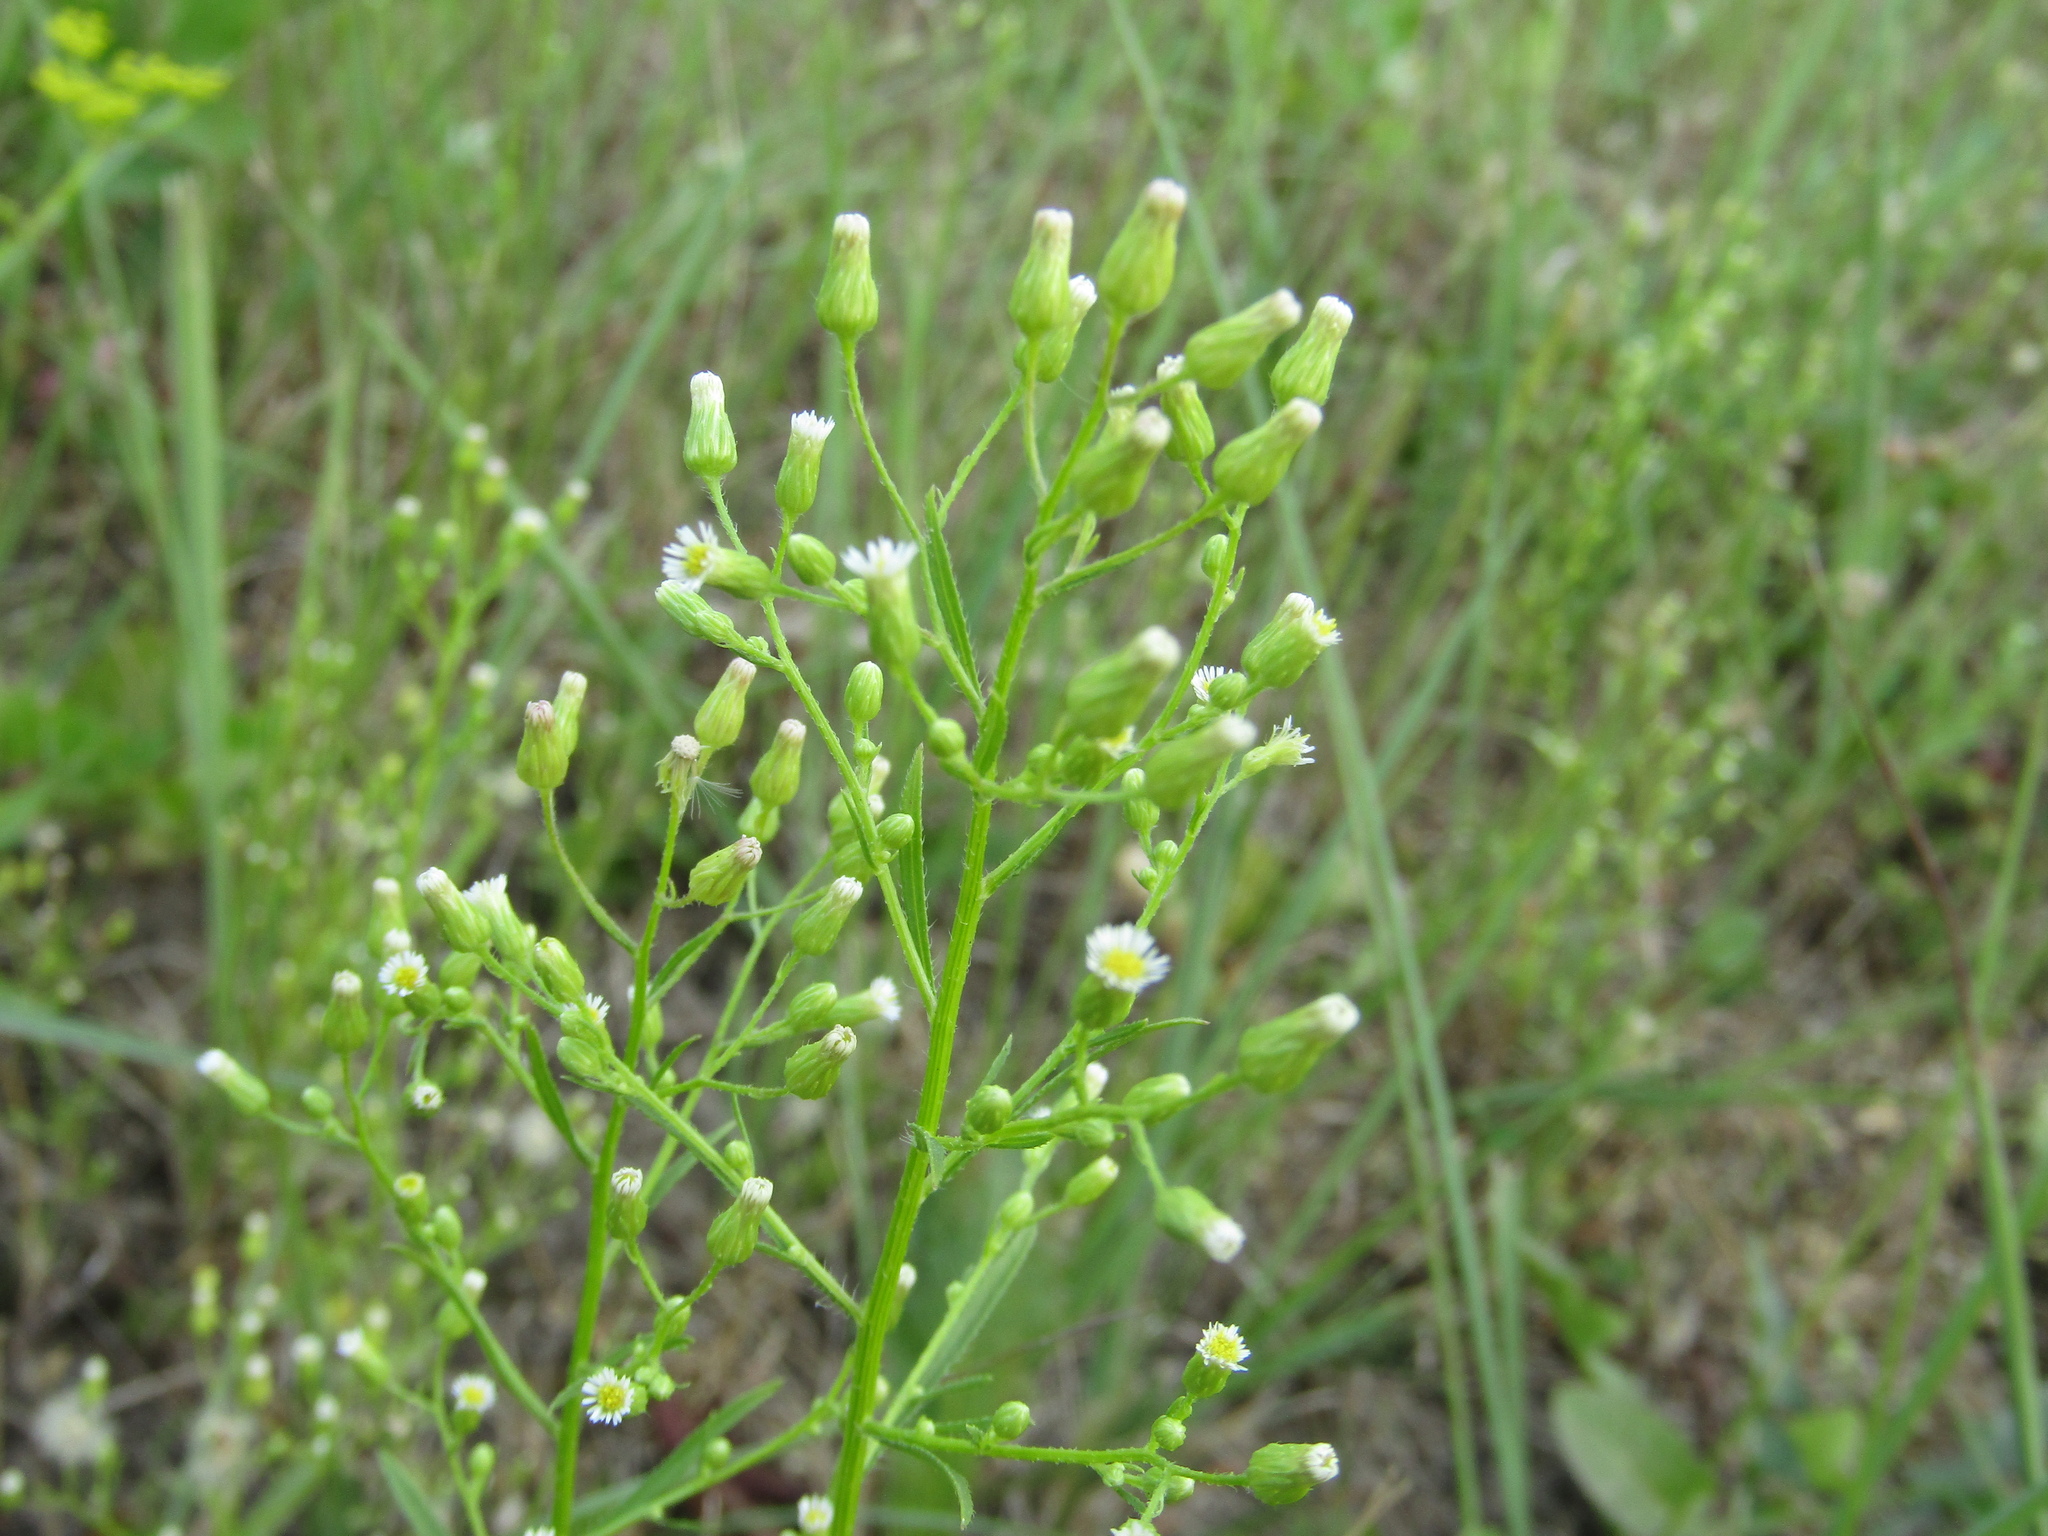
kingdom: Plantae
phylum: Tracheophyta
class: Magnoliopsida
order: Asterales
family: Asteraceae
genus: Erigeron
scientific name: Erigeron canadensis
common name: Canadian fleabane
